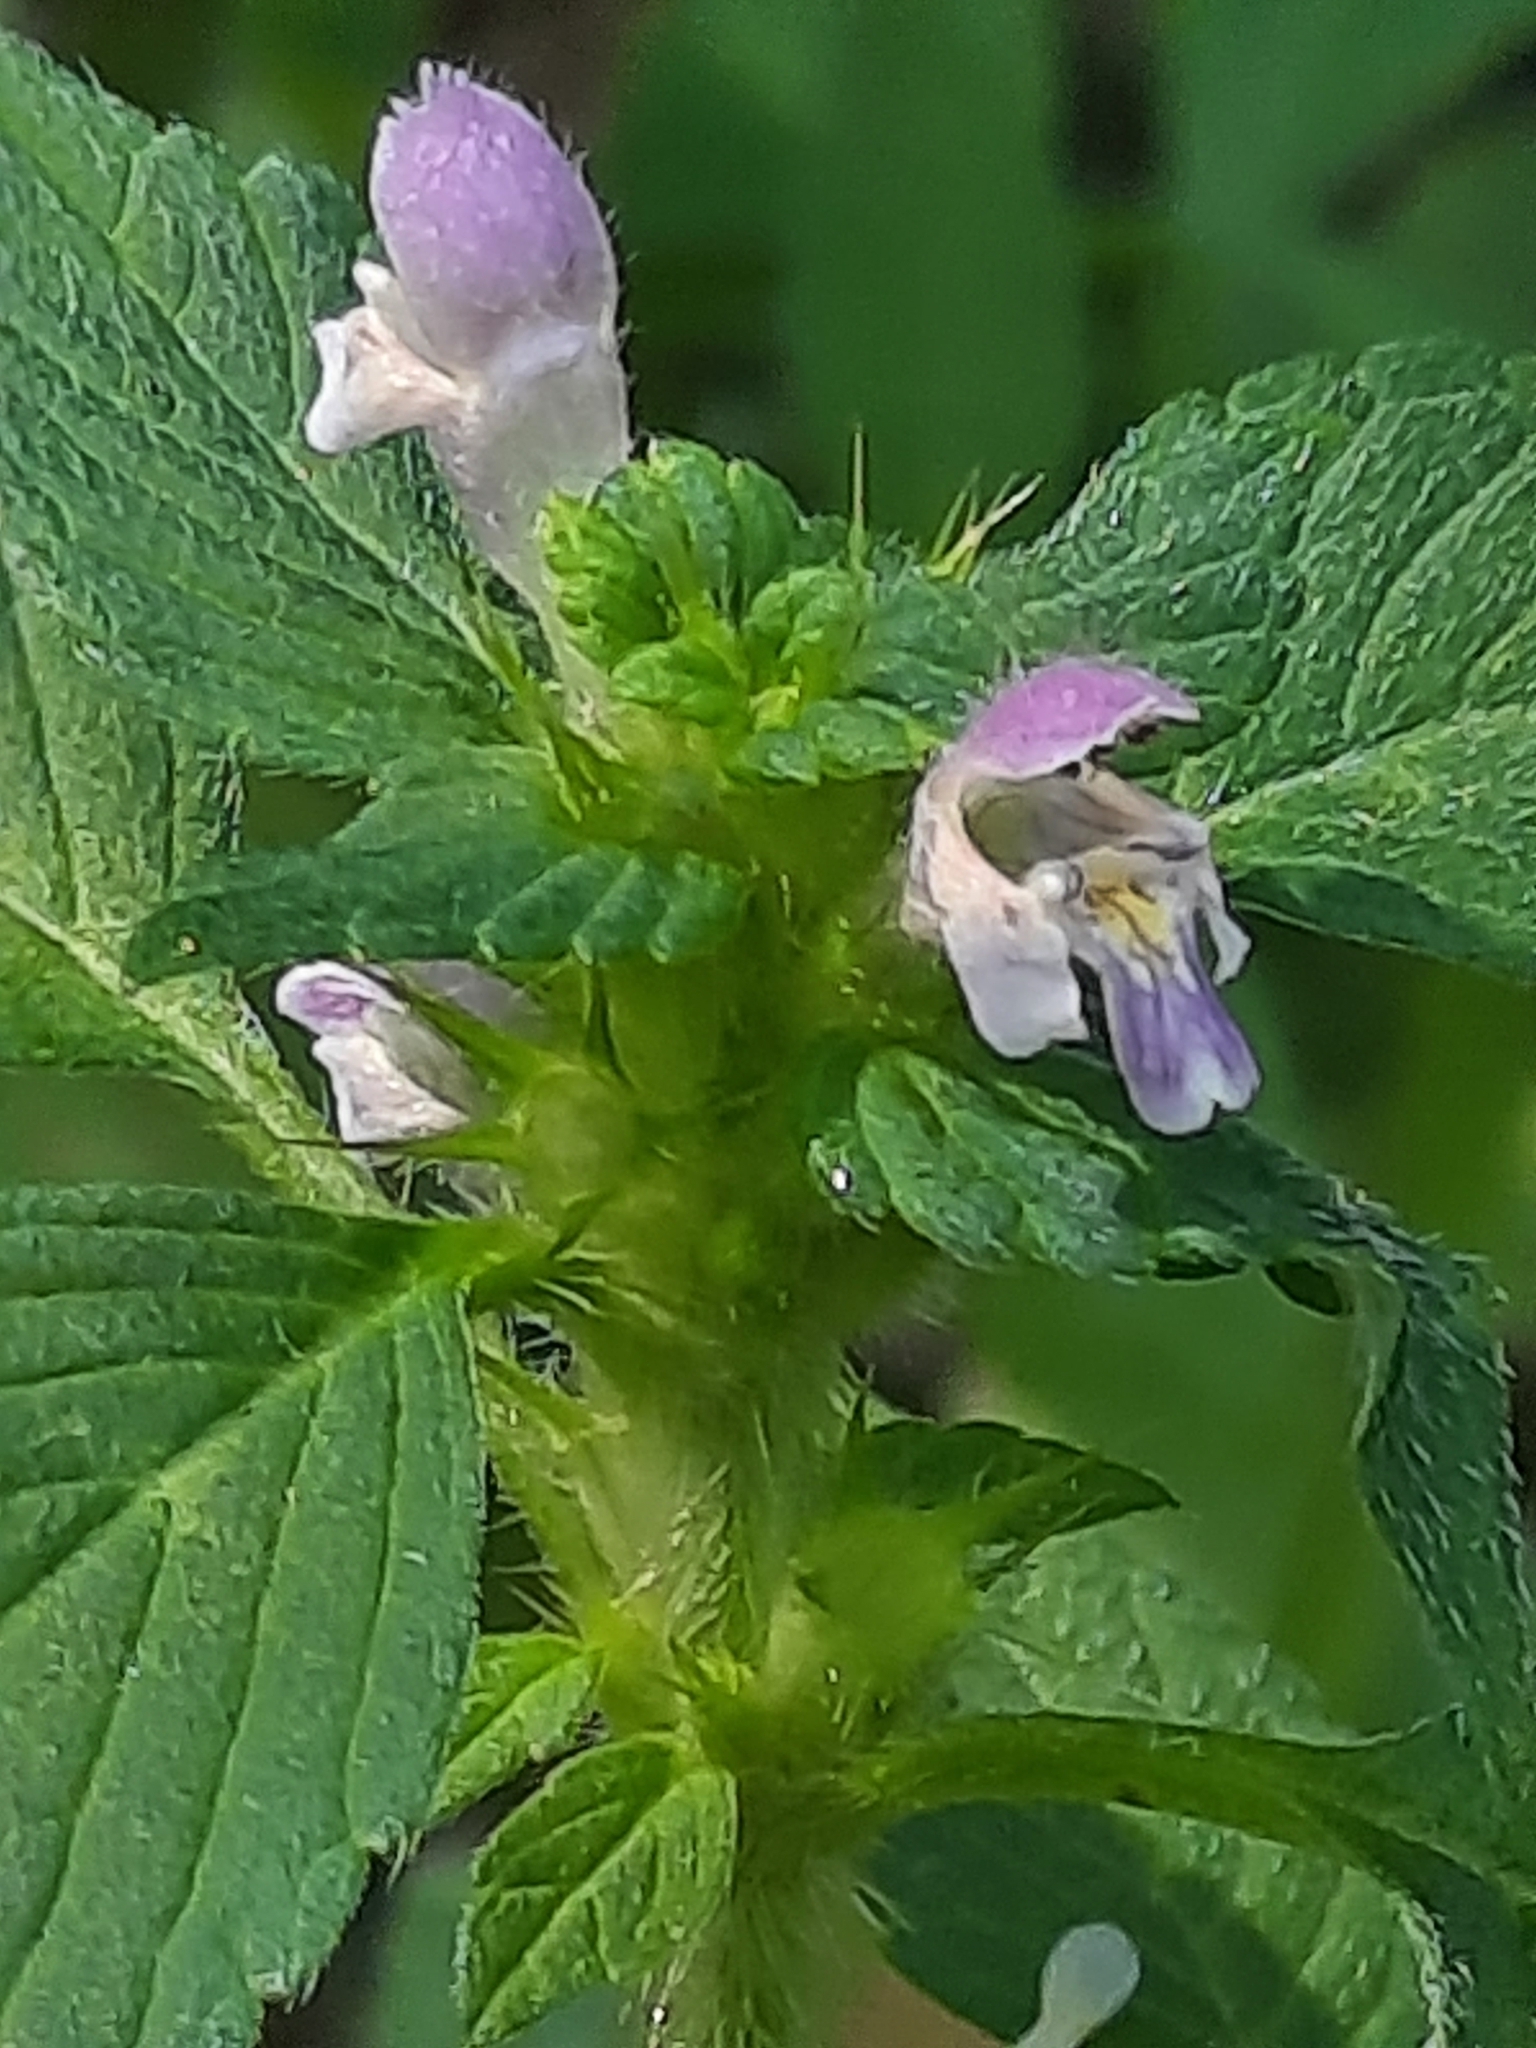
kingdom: Plantae
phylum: Tracheophyta
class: Magnoliopsida
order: Lamiales
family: Lamiaceae
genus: Galeopsis
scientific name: Galeopsis bifida
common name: Bifid hemp-nettle
